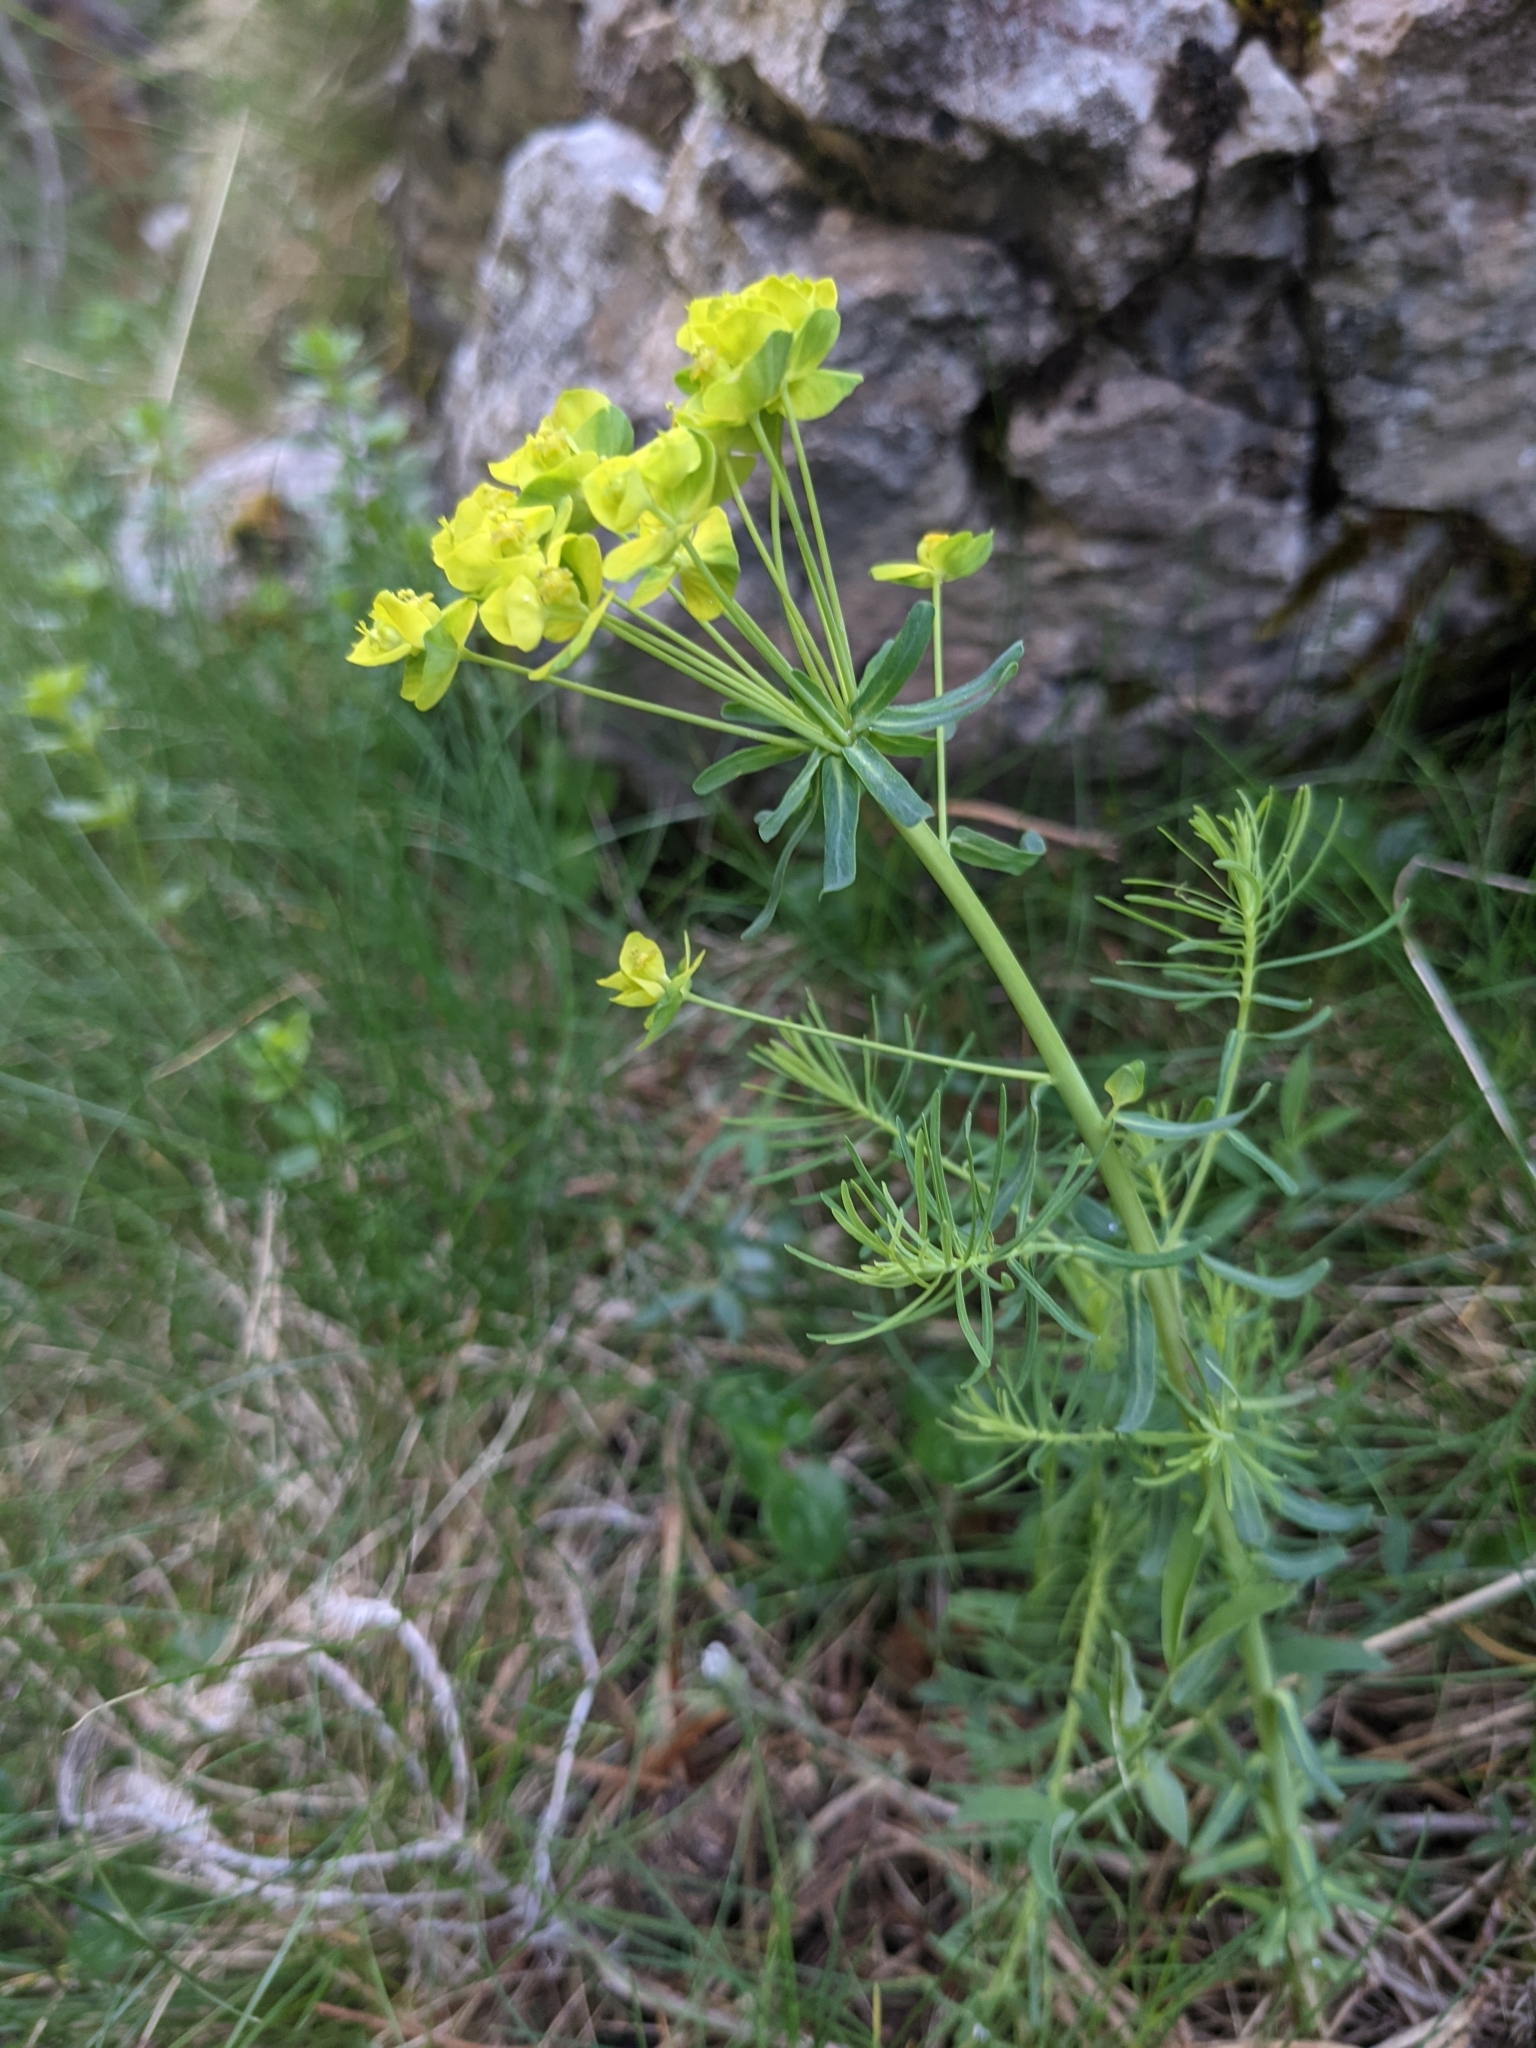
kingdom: Plantae
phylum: Tracheophyta
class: Magnoliopsida
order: Malpighiales
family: Euphorbiaceae
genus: Euphorbia
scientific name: Euphorbia cyparissias
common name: Cypress spurge
